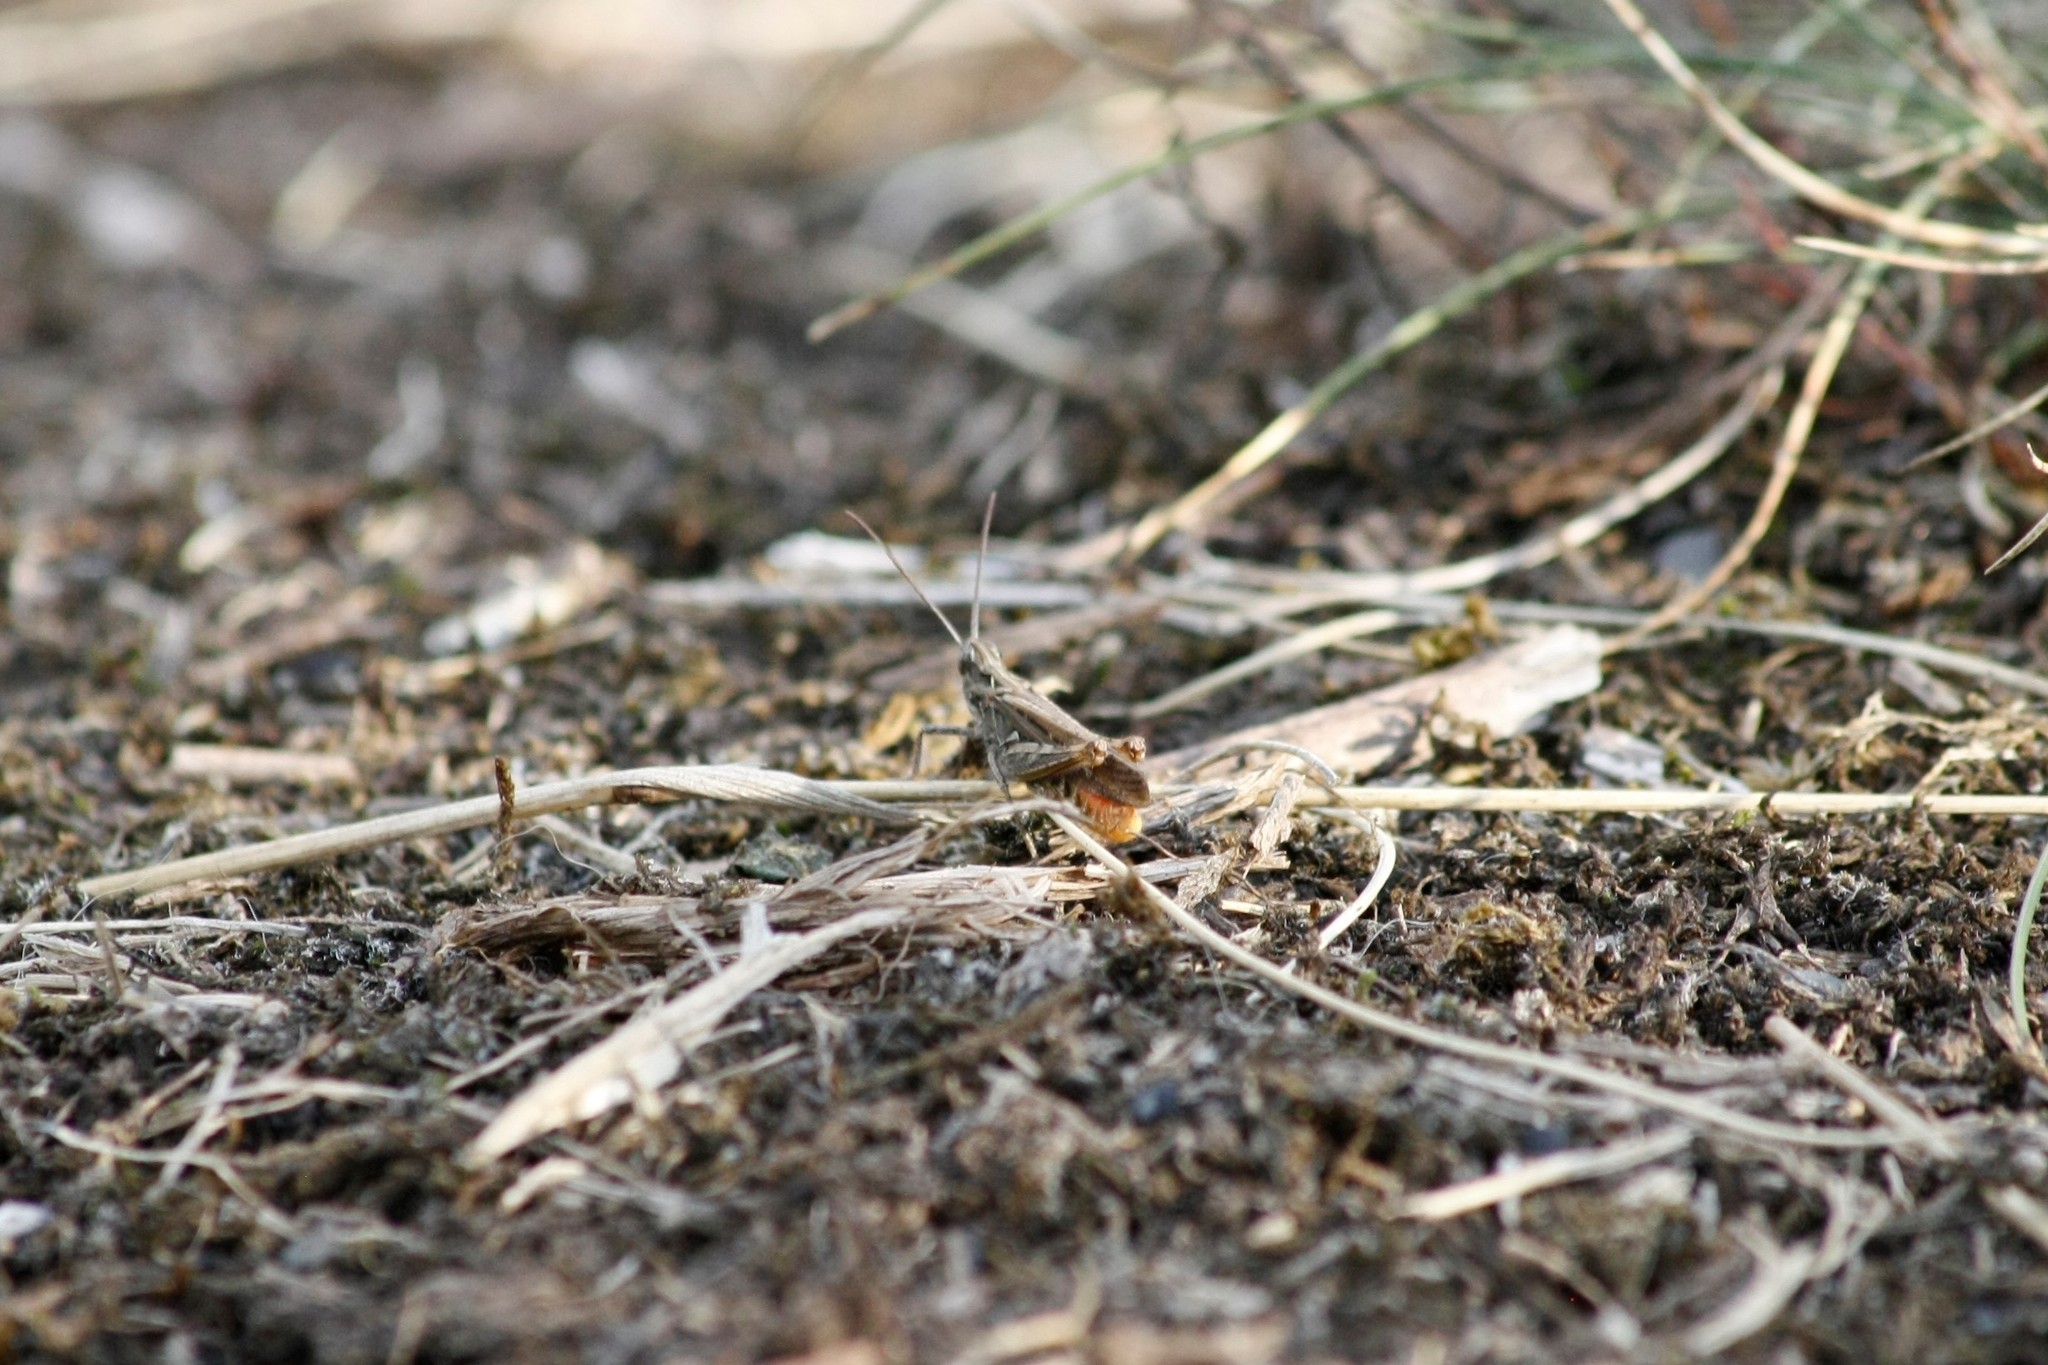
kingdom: Animalia
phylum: Arthropoda
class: Insecta
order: Orthoptera
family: Acrididae
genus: Chorthippus
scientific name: Chorthippus brunneus
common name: Field grasshopper
